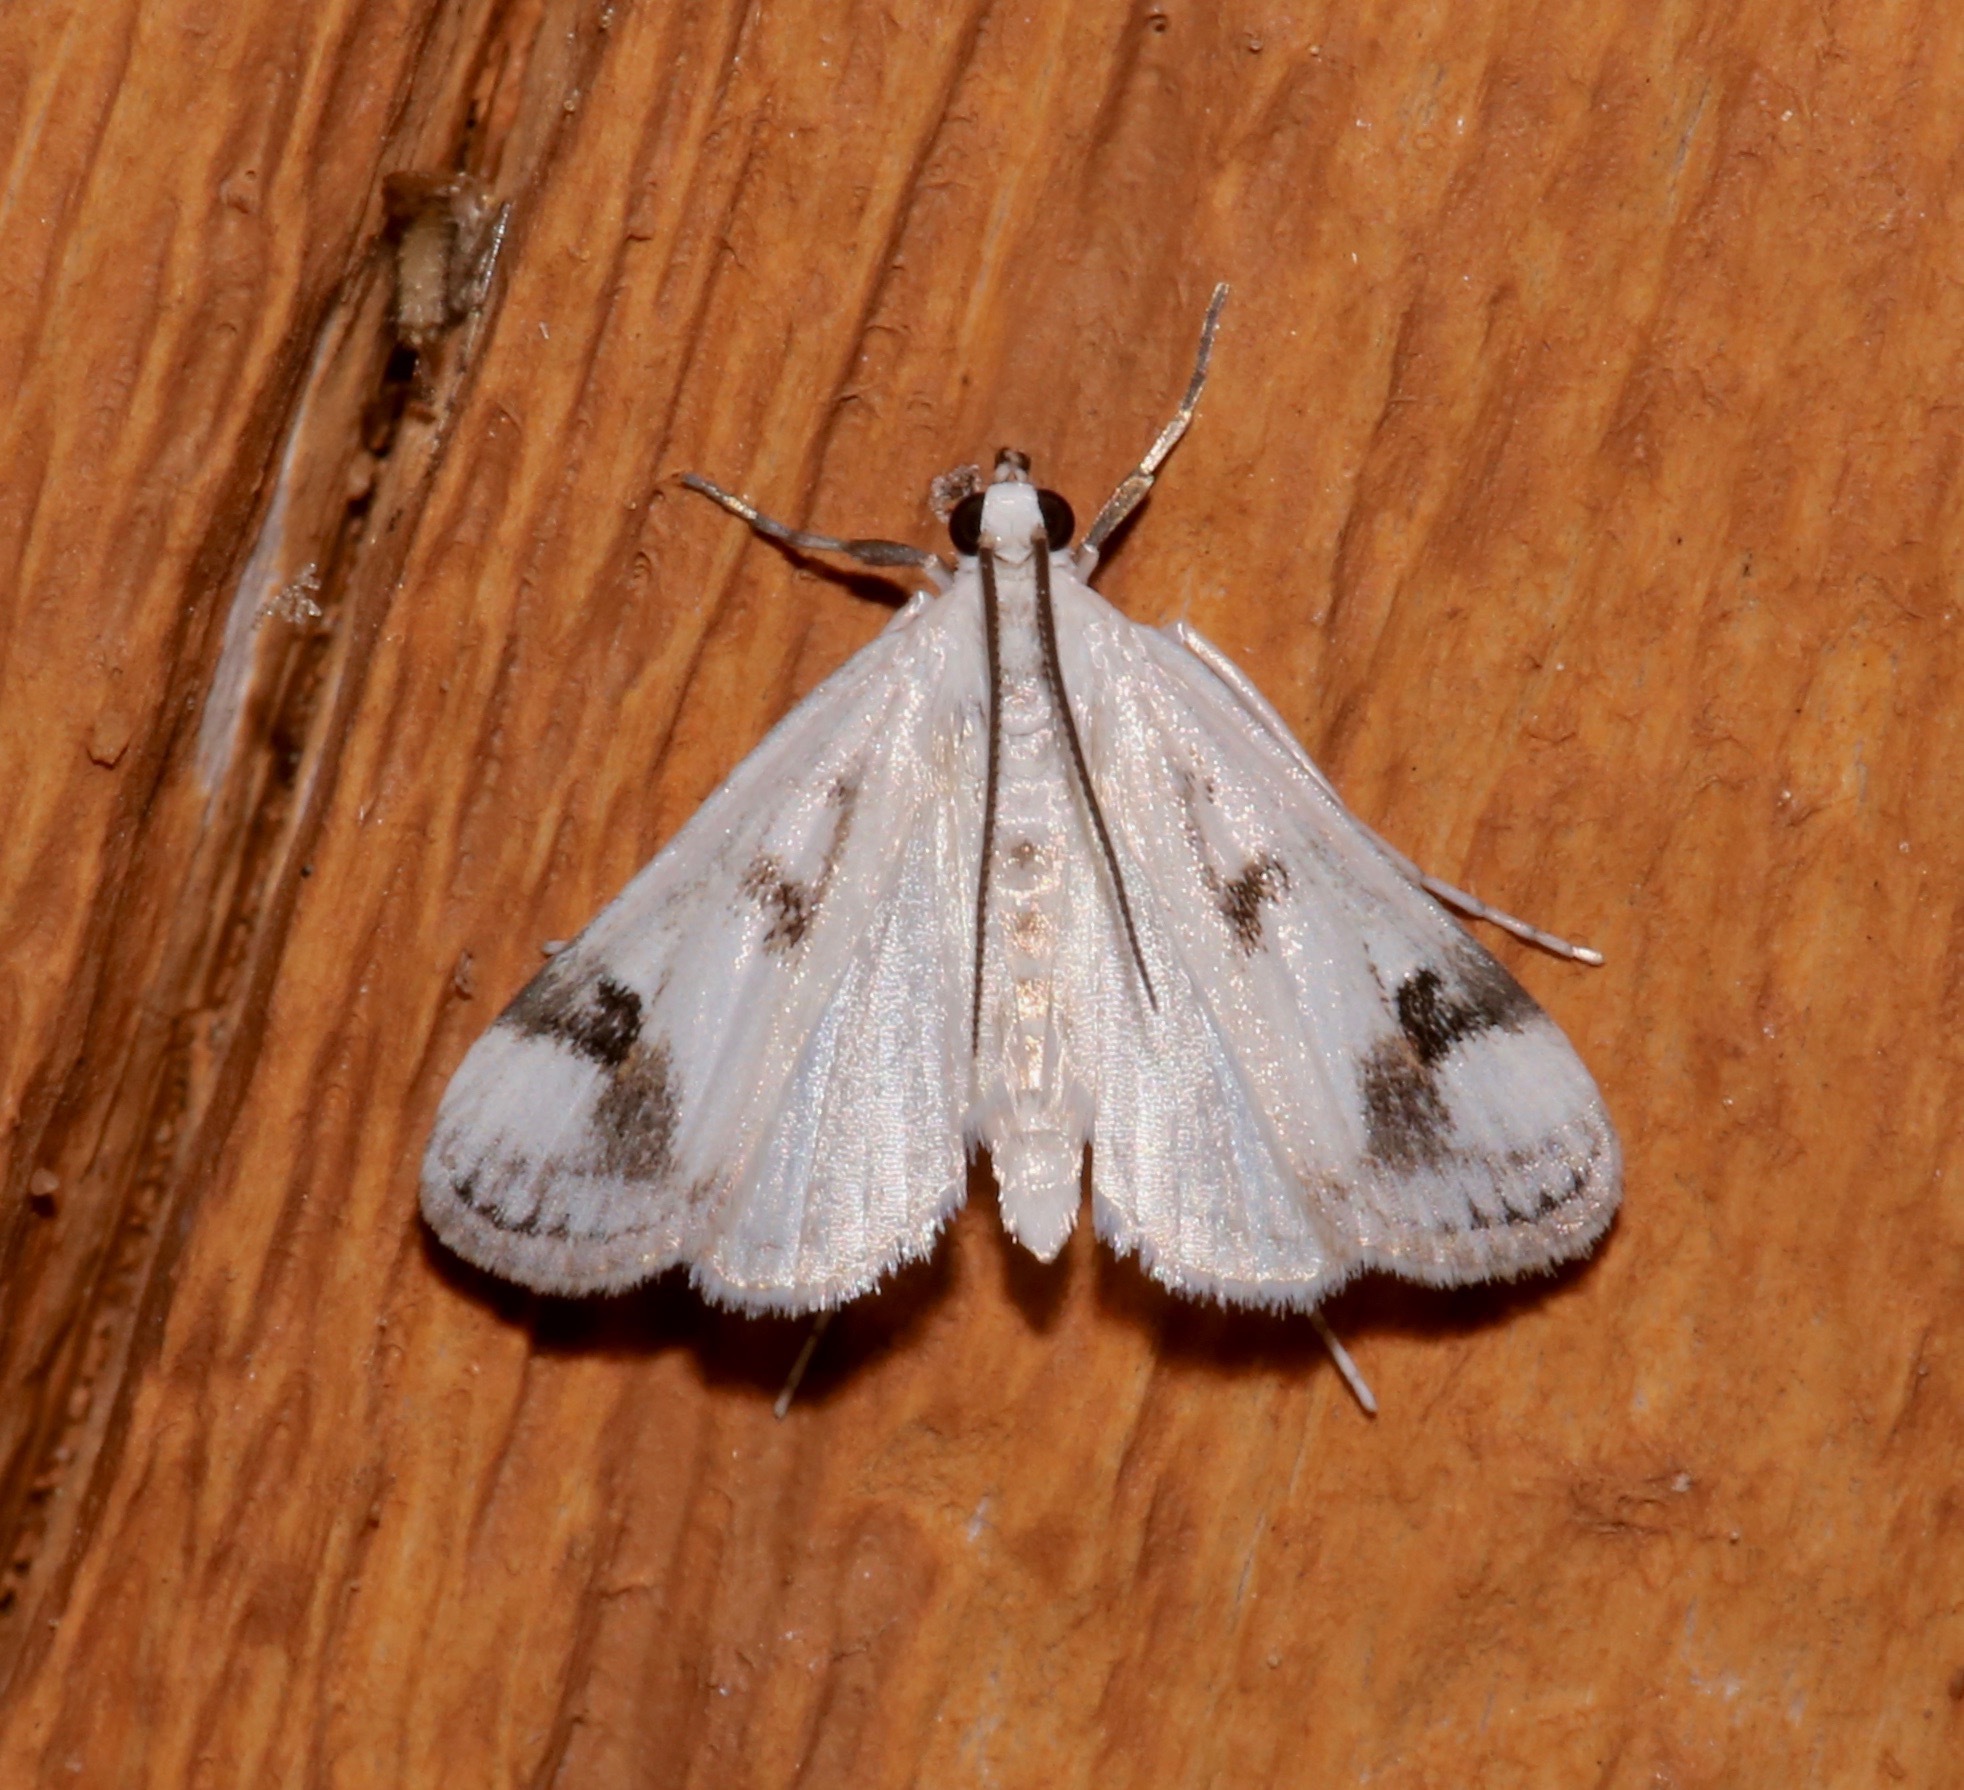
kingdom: Animalia
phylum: Arthropoda
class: Insecta
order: Lepidoptera
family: Crambidae
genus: Parapoynx
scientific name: Parapoynx maculalis
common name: Polymorphic pondweed moth
